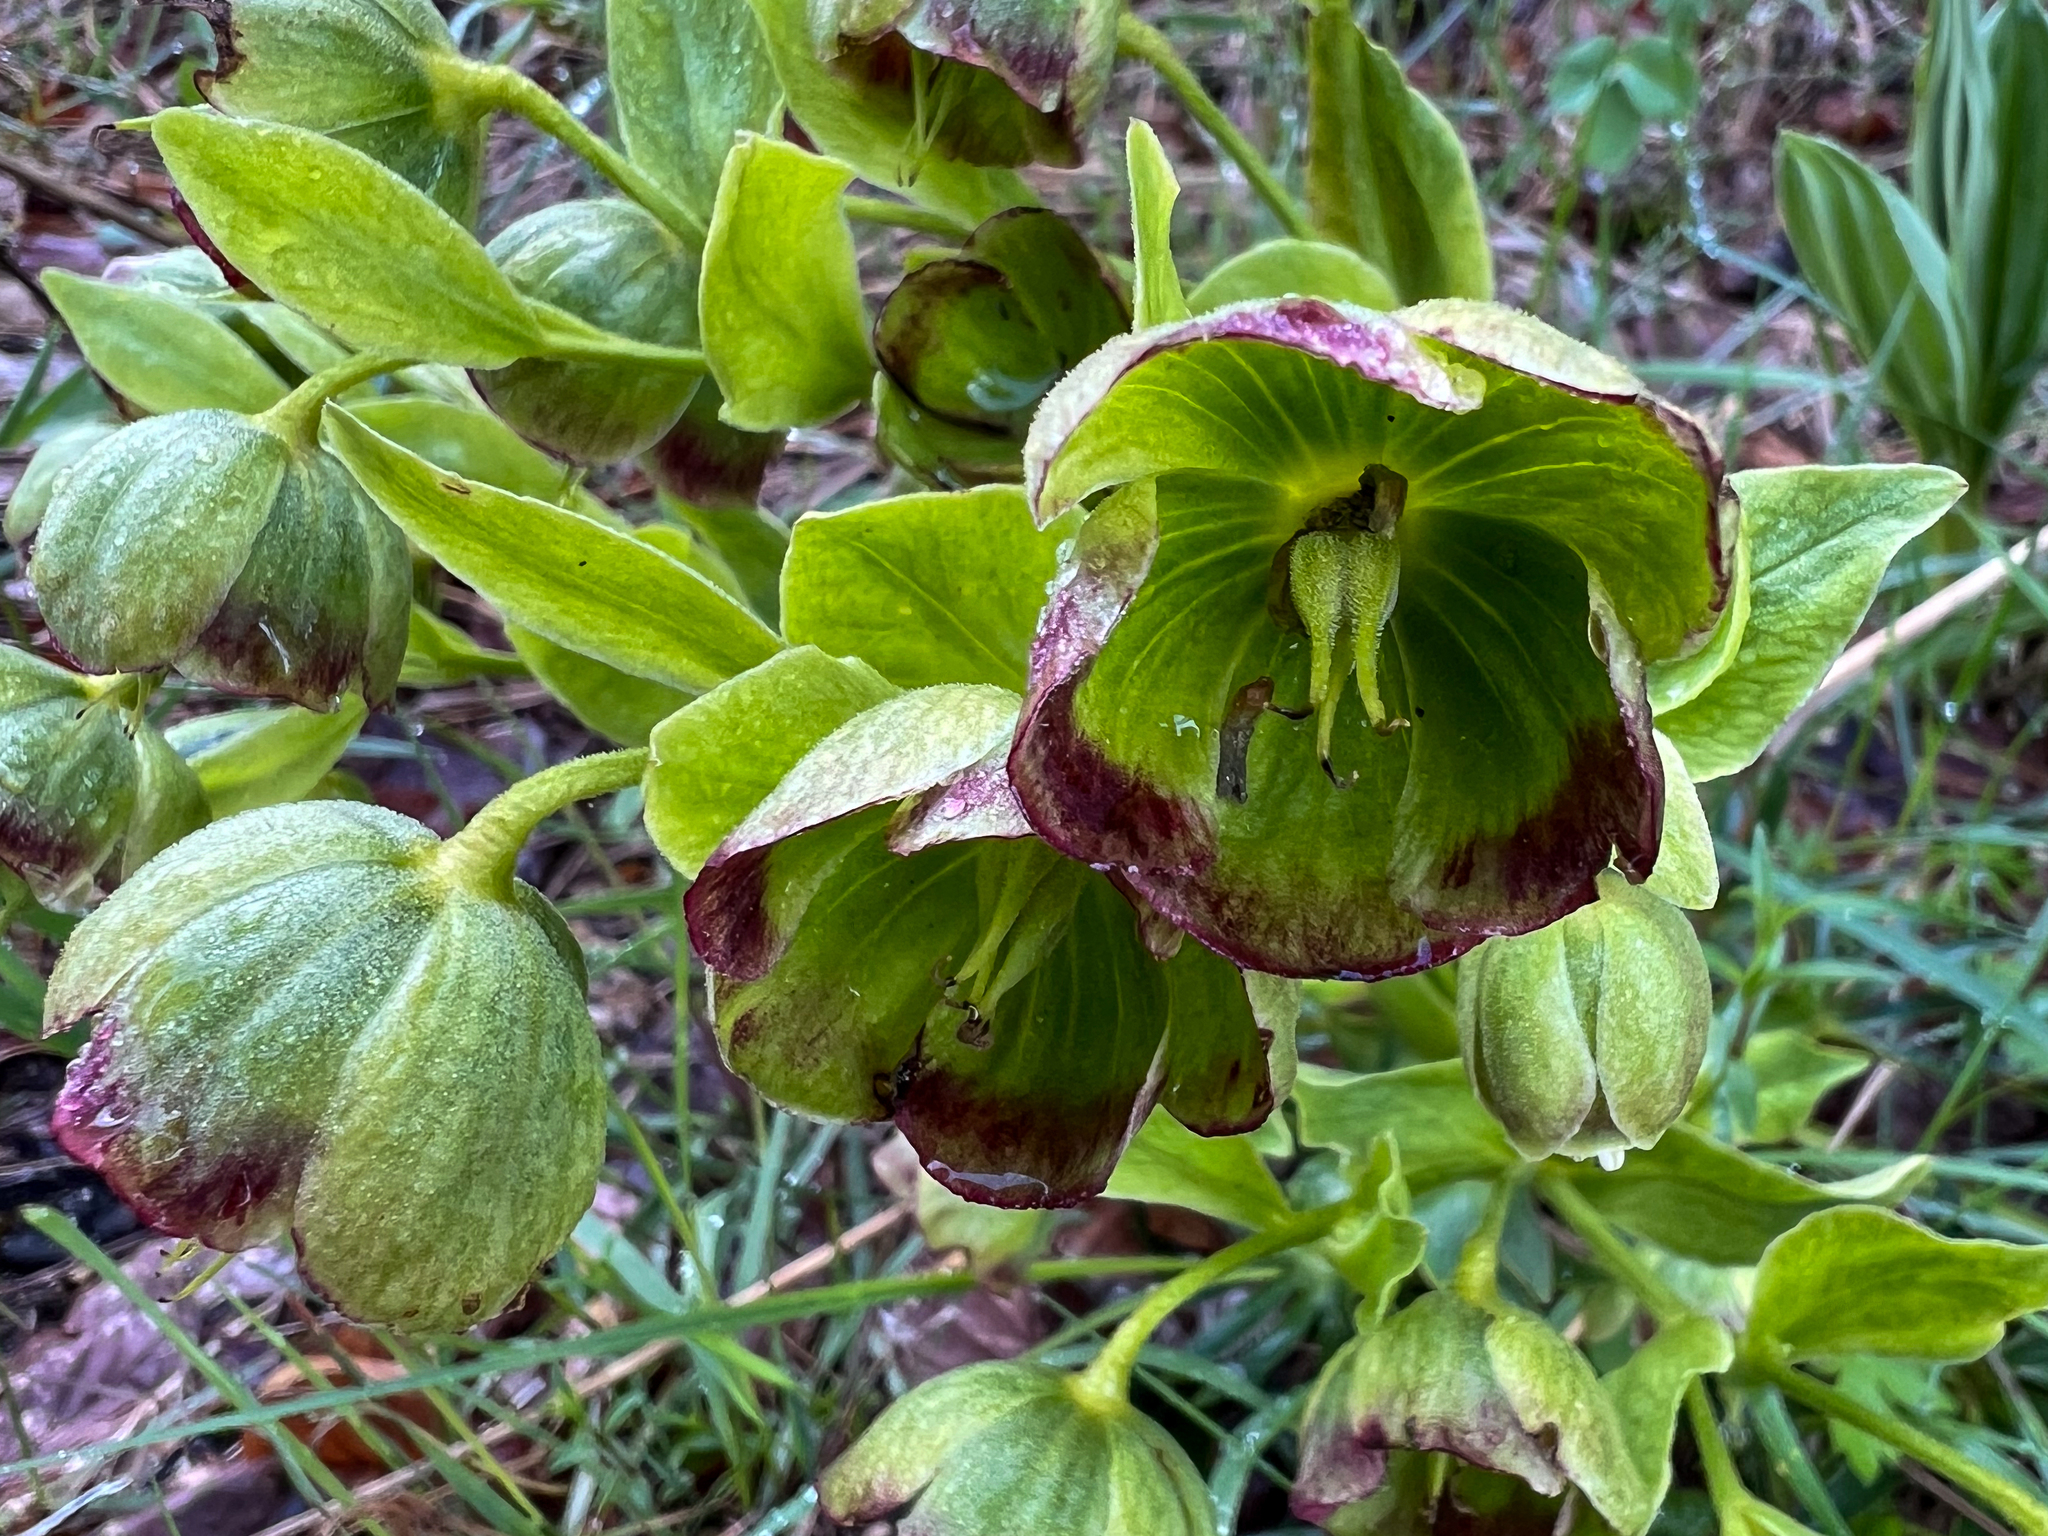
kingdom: Plantae
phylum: Tracheophyta
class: Magnoliopsida
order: Ranunculales
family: Ranunculaceae
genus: Helleborus
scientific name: Helleborus foetidus
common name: Stinking hellebore
